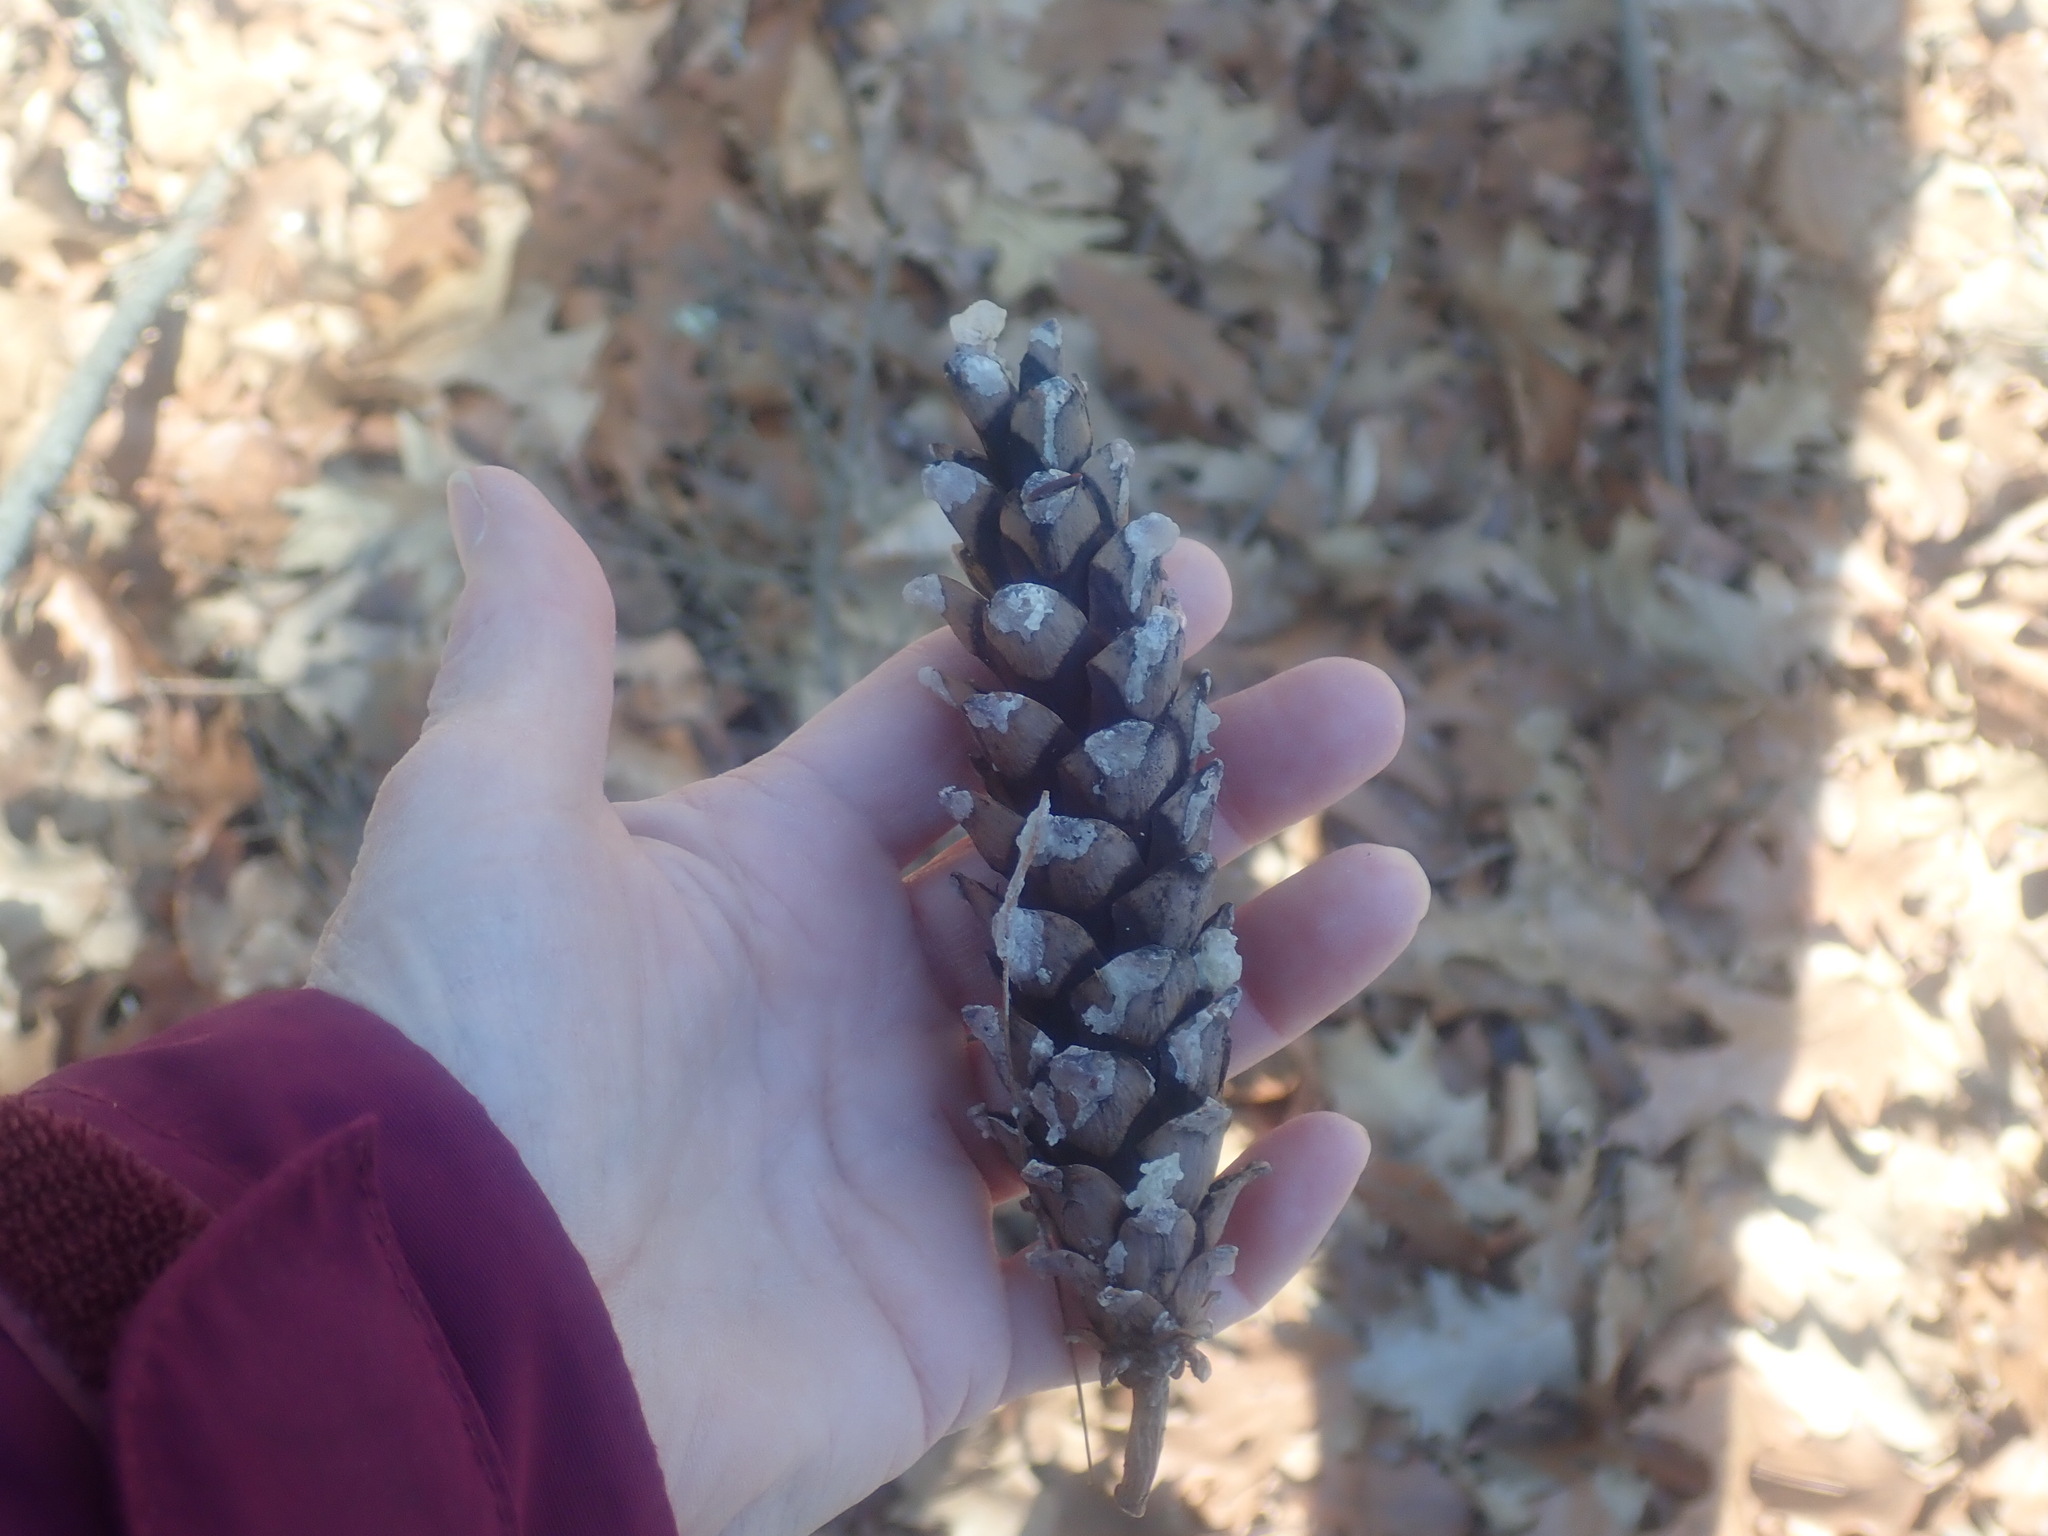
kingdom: Plantae
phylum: Tracheophyta
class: Pinopsida
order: Pinales
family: Pinaceae
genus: Pinus
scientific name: Pinus strobus
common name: Weymouth pine
